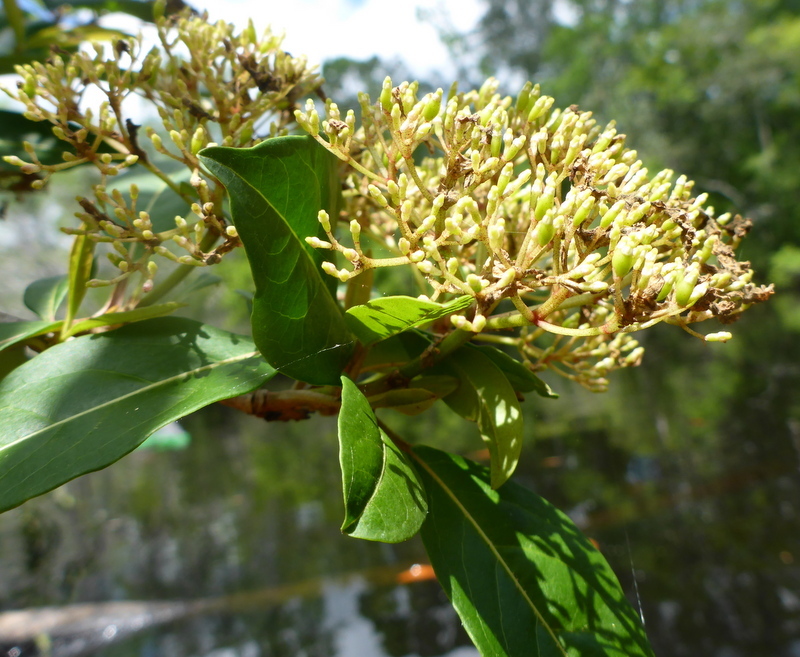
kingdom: Plantae
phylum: Tracheophyta
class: Magnoliopsida
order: Dipsacales
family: Viburnaceae
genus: Viburnum
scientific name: Viburnum nudum
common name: Possum haw
